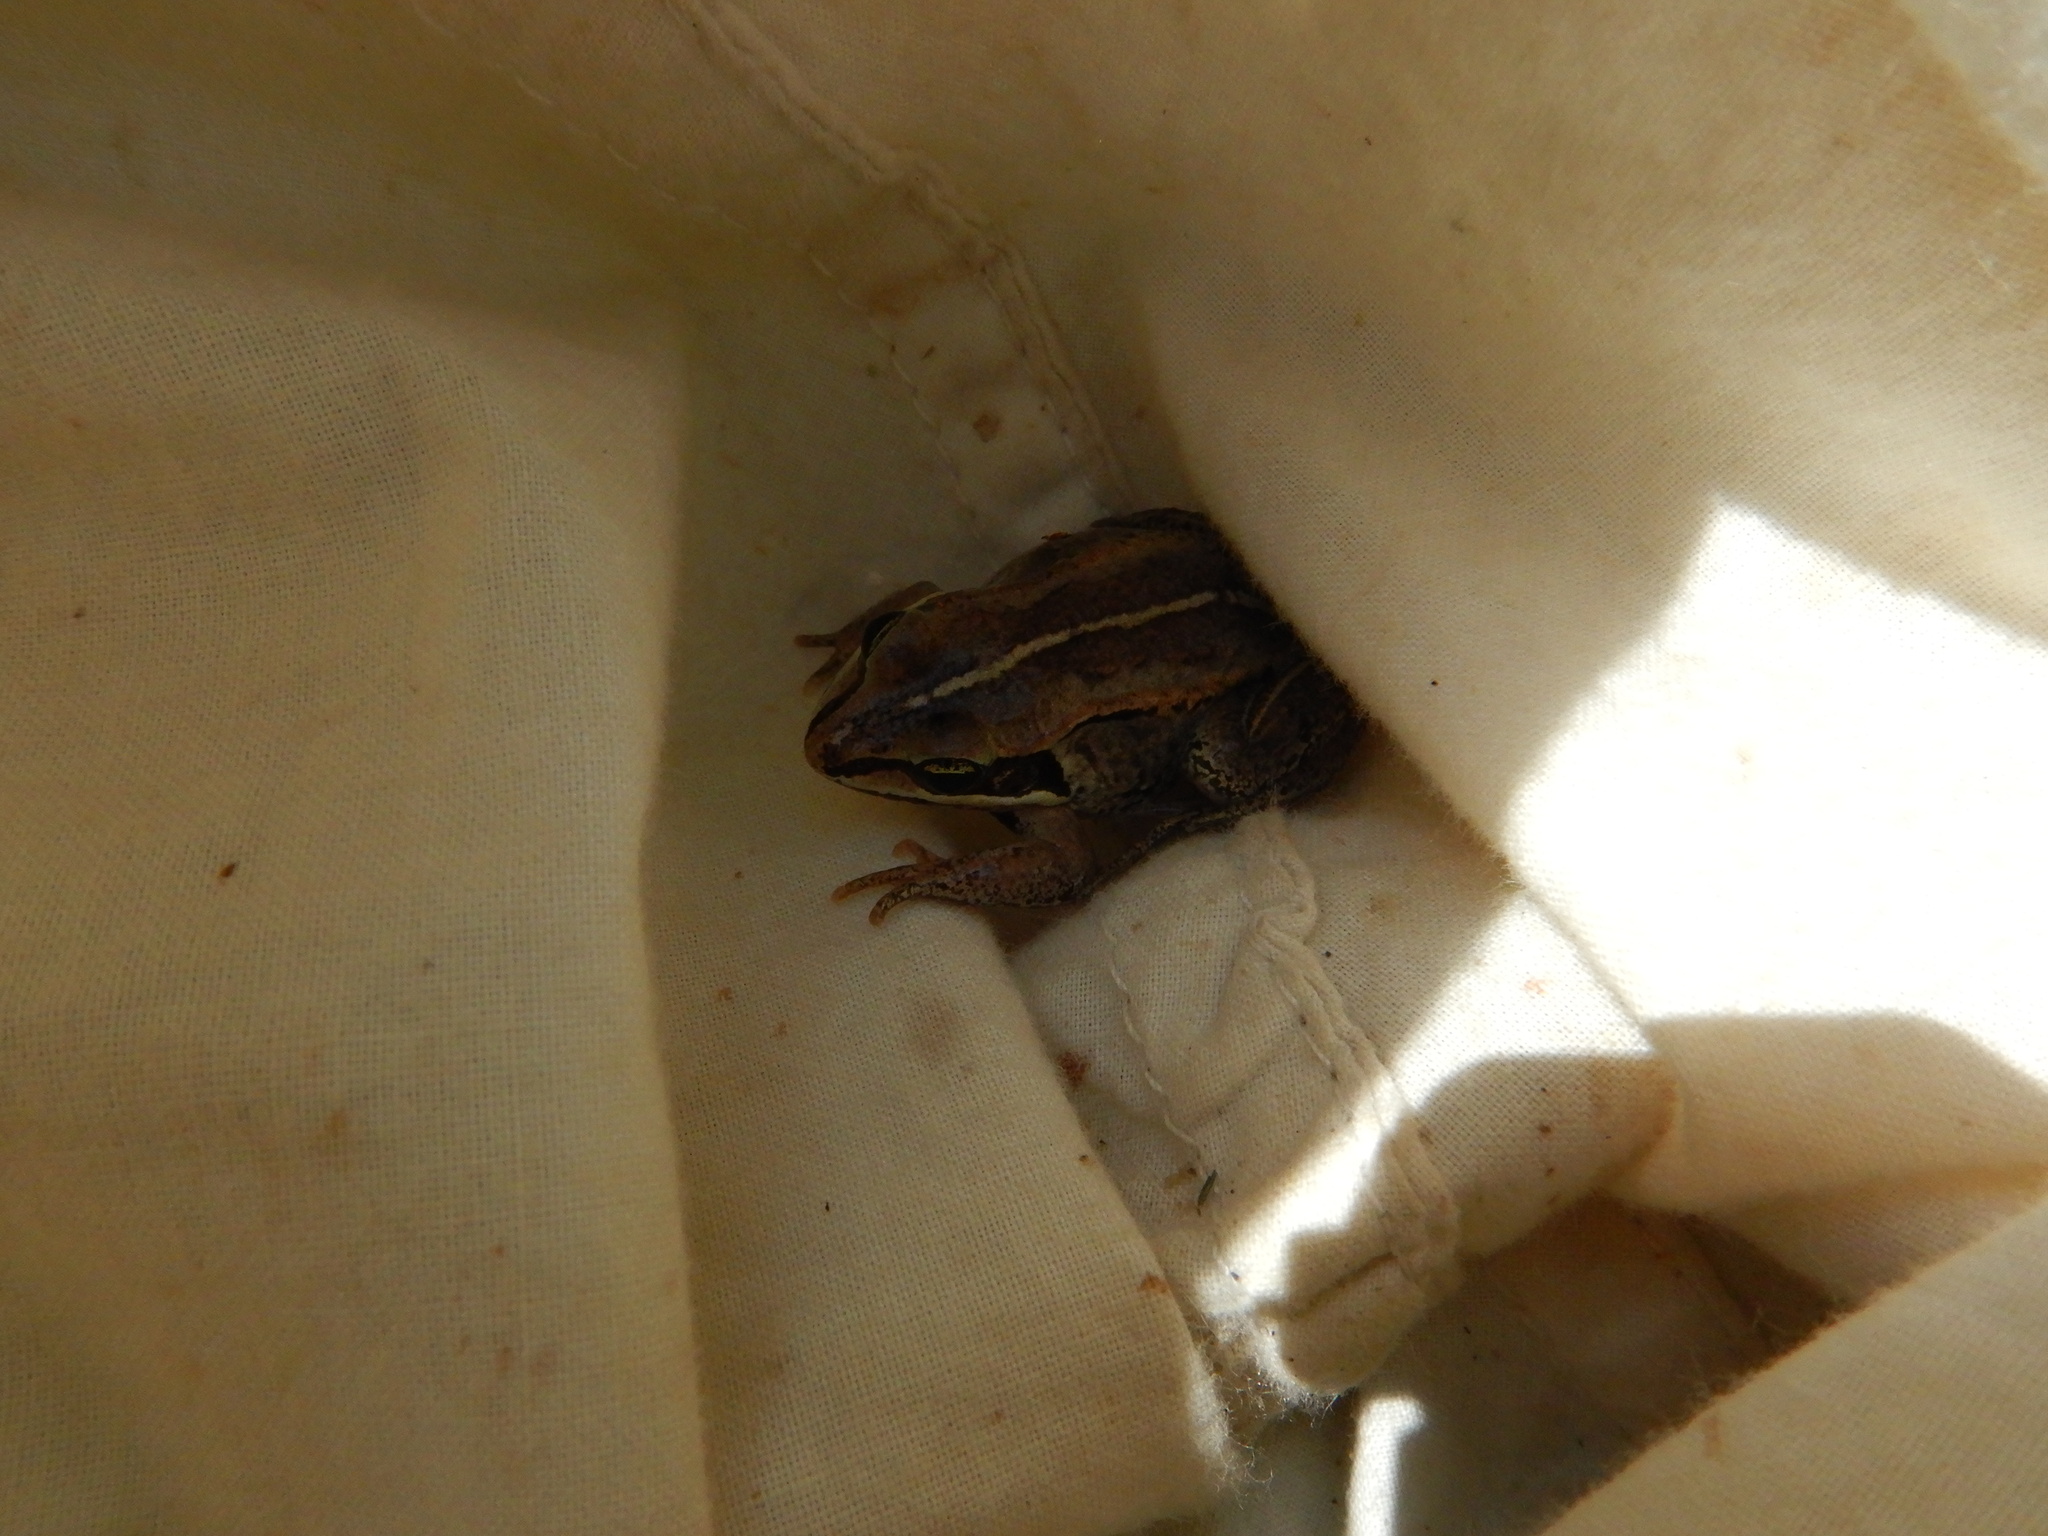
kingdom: Animalia
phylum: Chordata
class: Amphibia
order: Anura
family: Ranidae
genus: Lithobates
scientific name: Lithobates sylvaticus
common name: Wood frog
